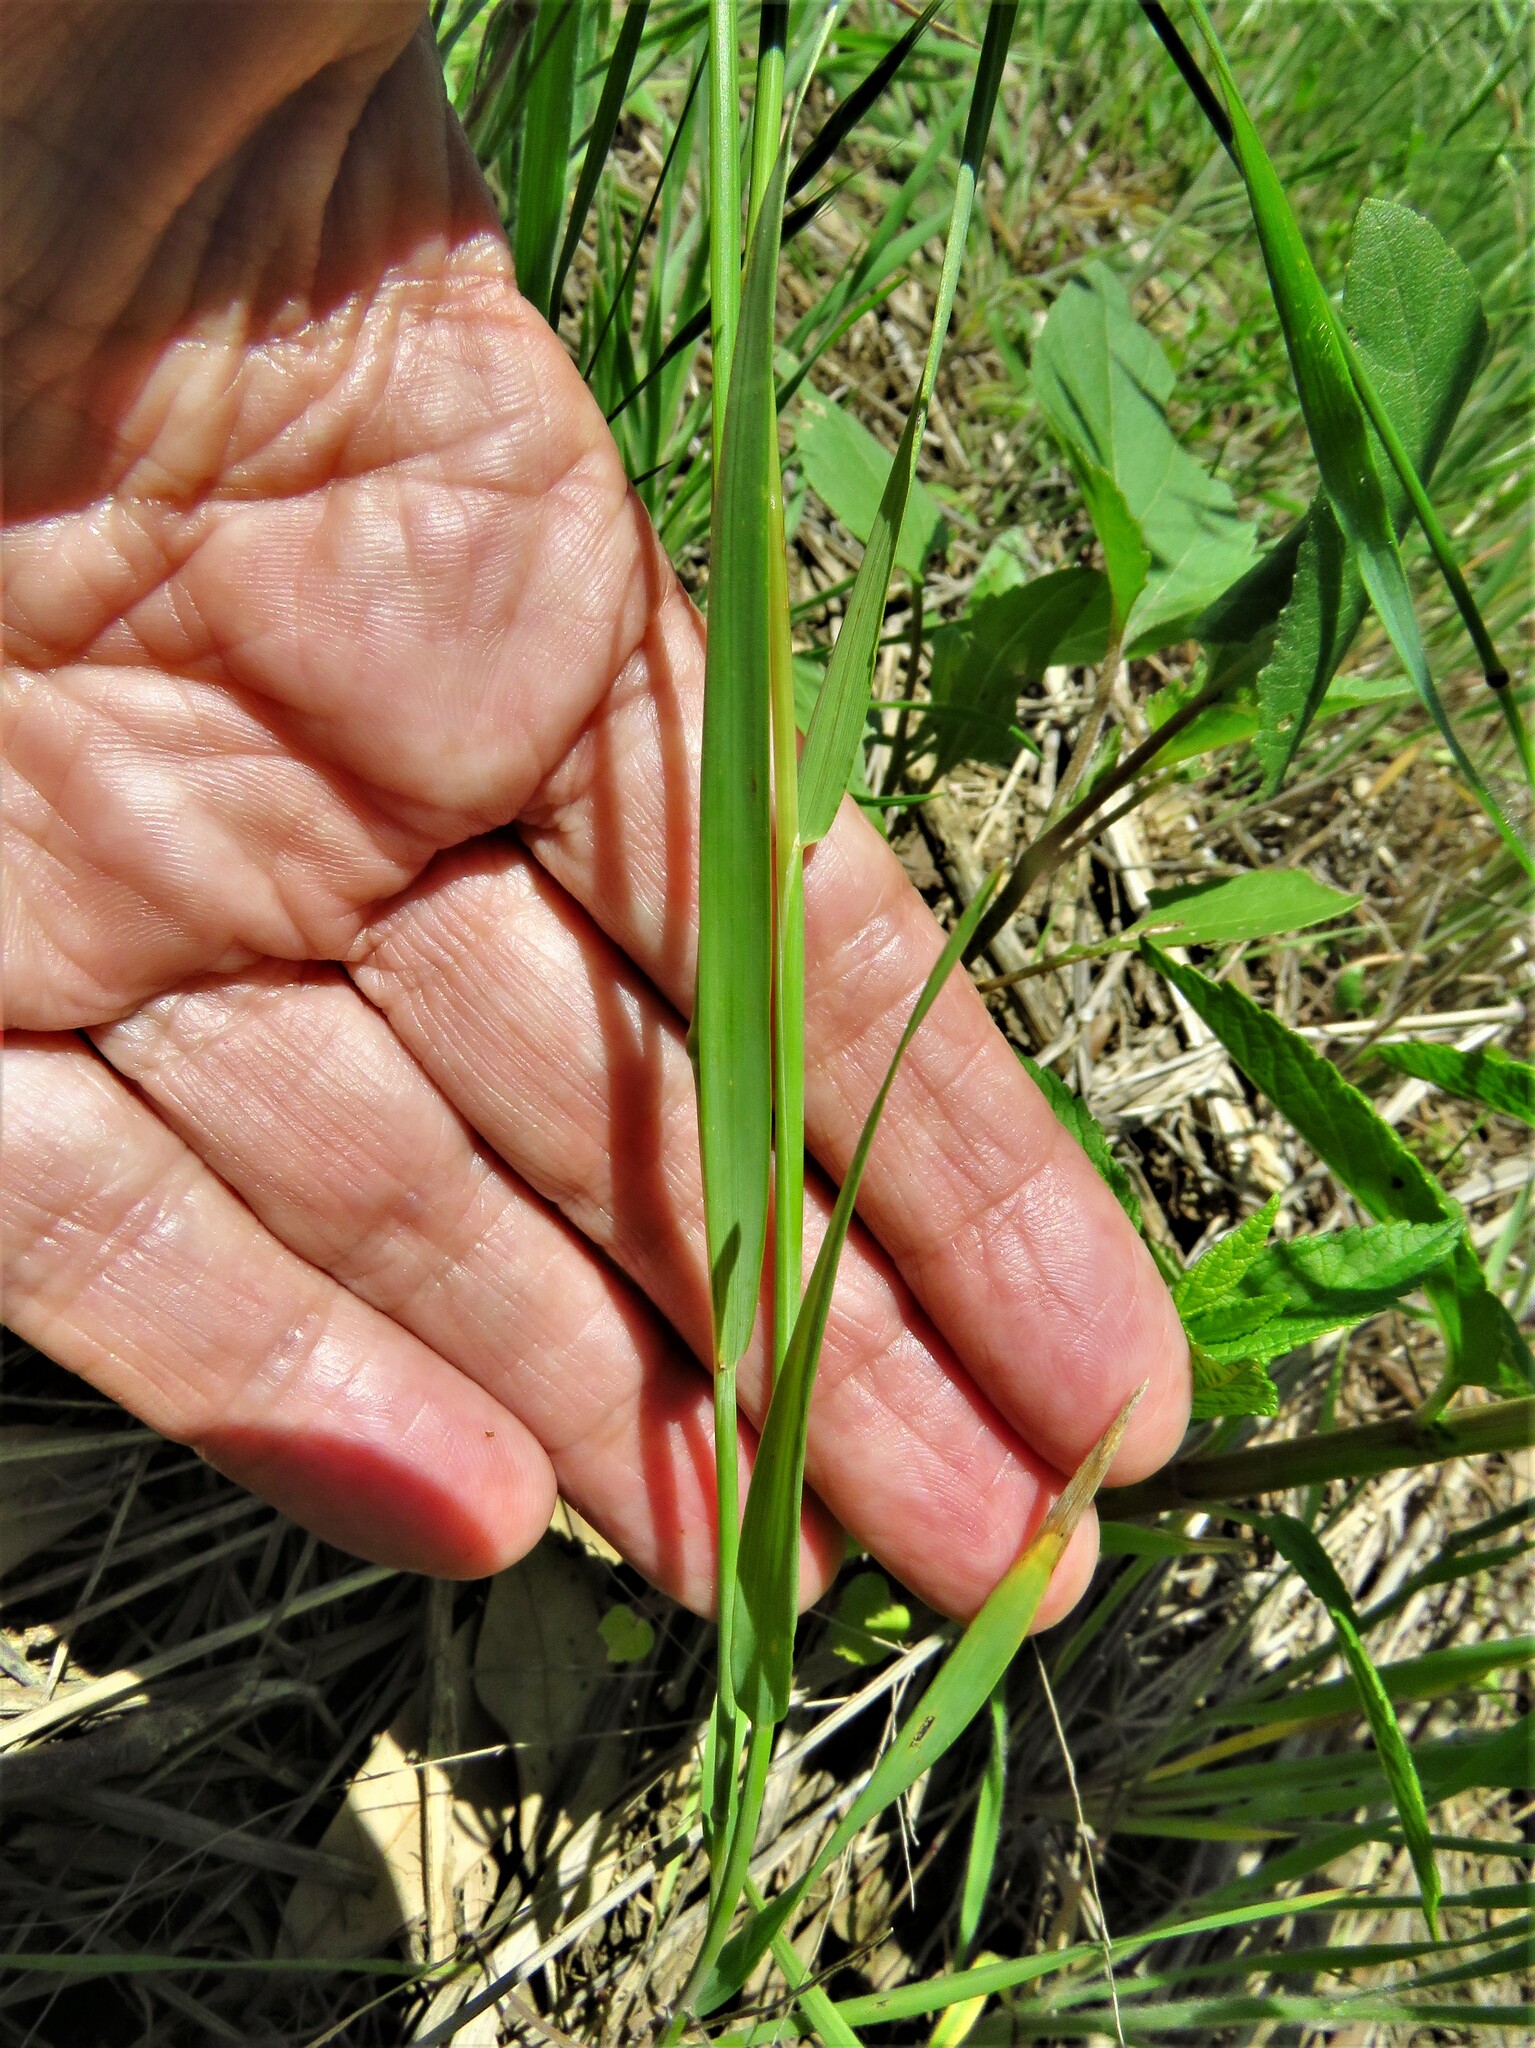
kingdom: Plantae
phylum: Tracheophyta
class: Liliopsida
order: Poales
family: Poaceae
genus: Hordeum
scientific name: Hordeum pusillum
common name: Little barley
